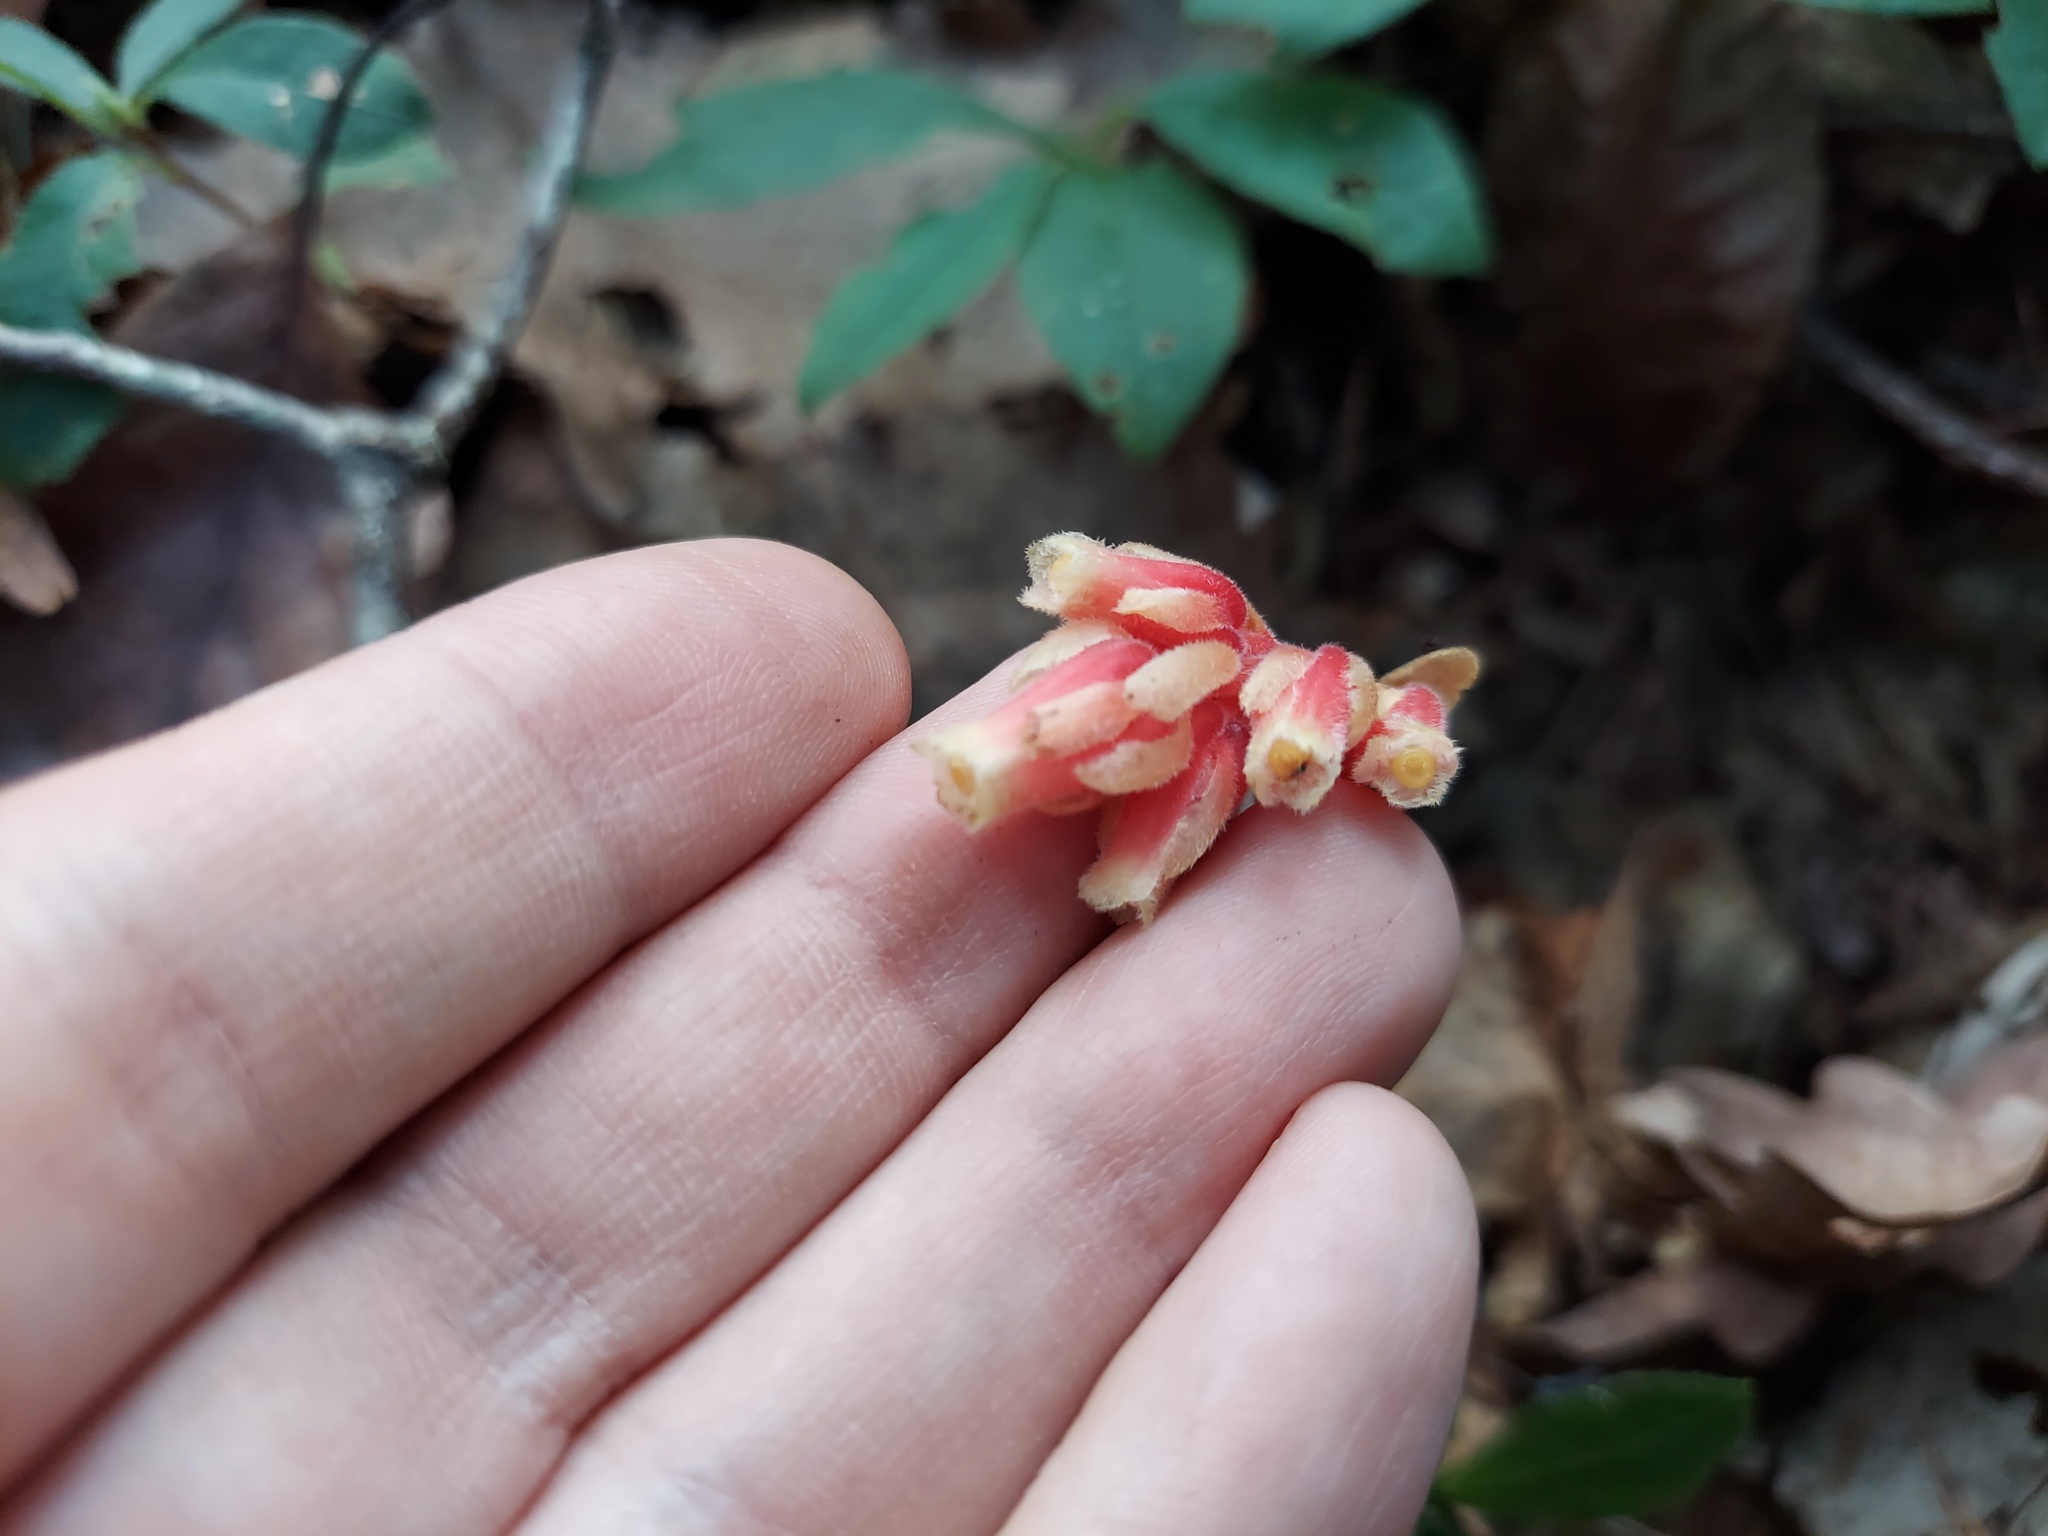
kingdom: Plantae
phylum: Tracheophyta
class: Magnoliopsida
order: Ericales
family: Ericaceae
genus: Hypopitys
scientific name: Hypopitys monotropa
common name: Yellow bird's-nest
